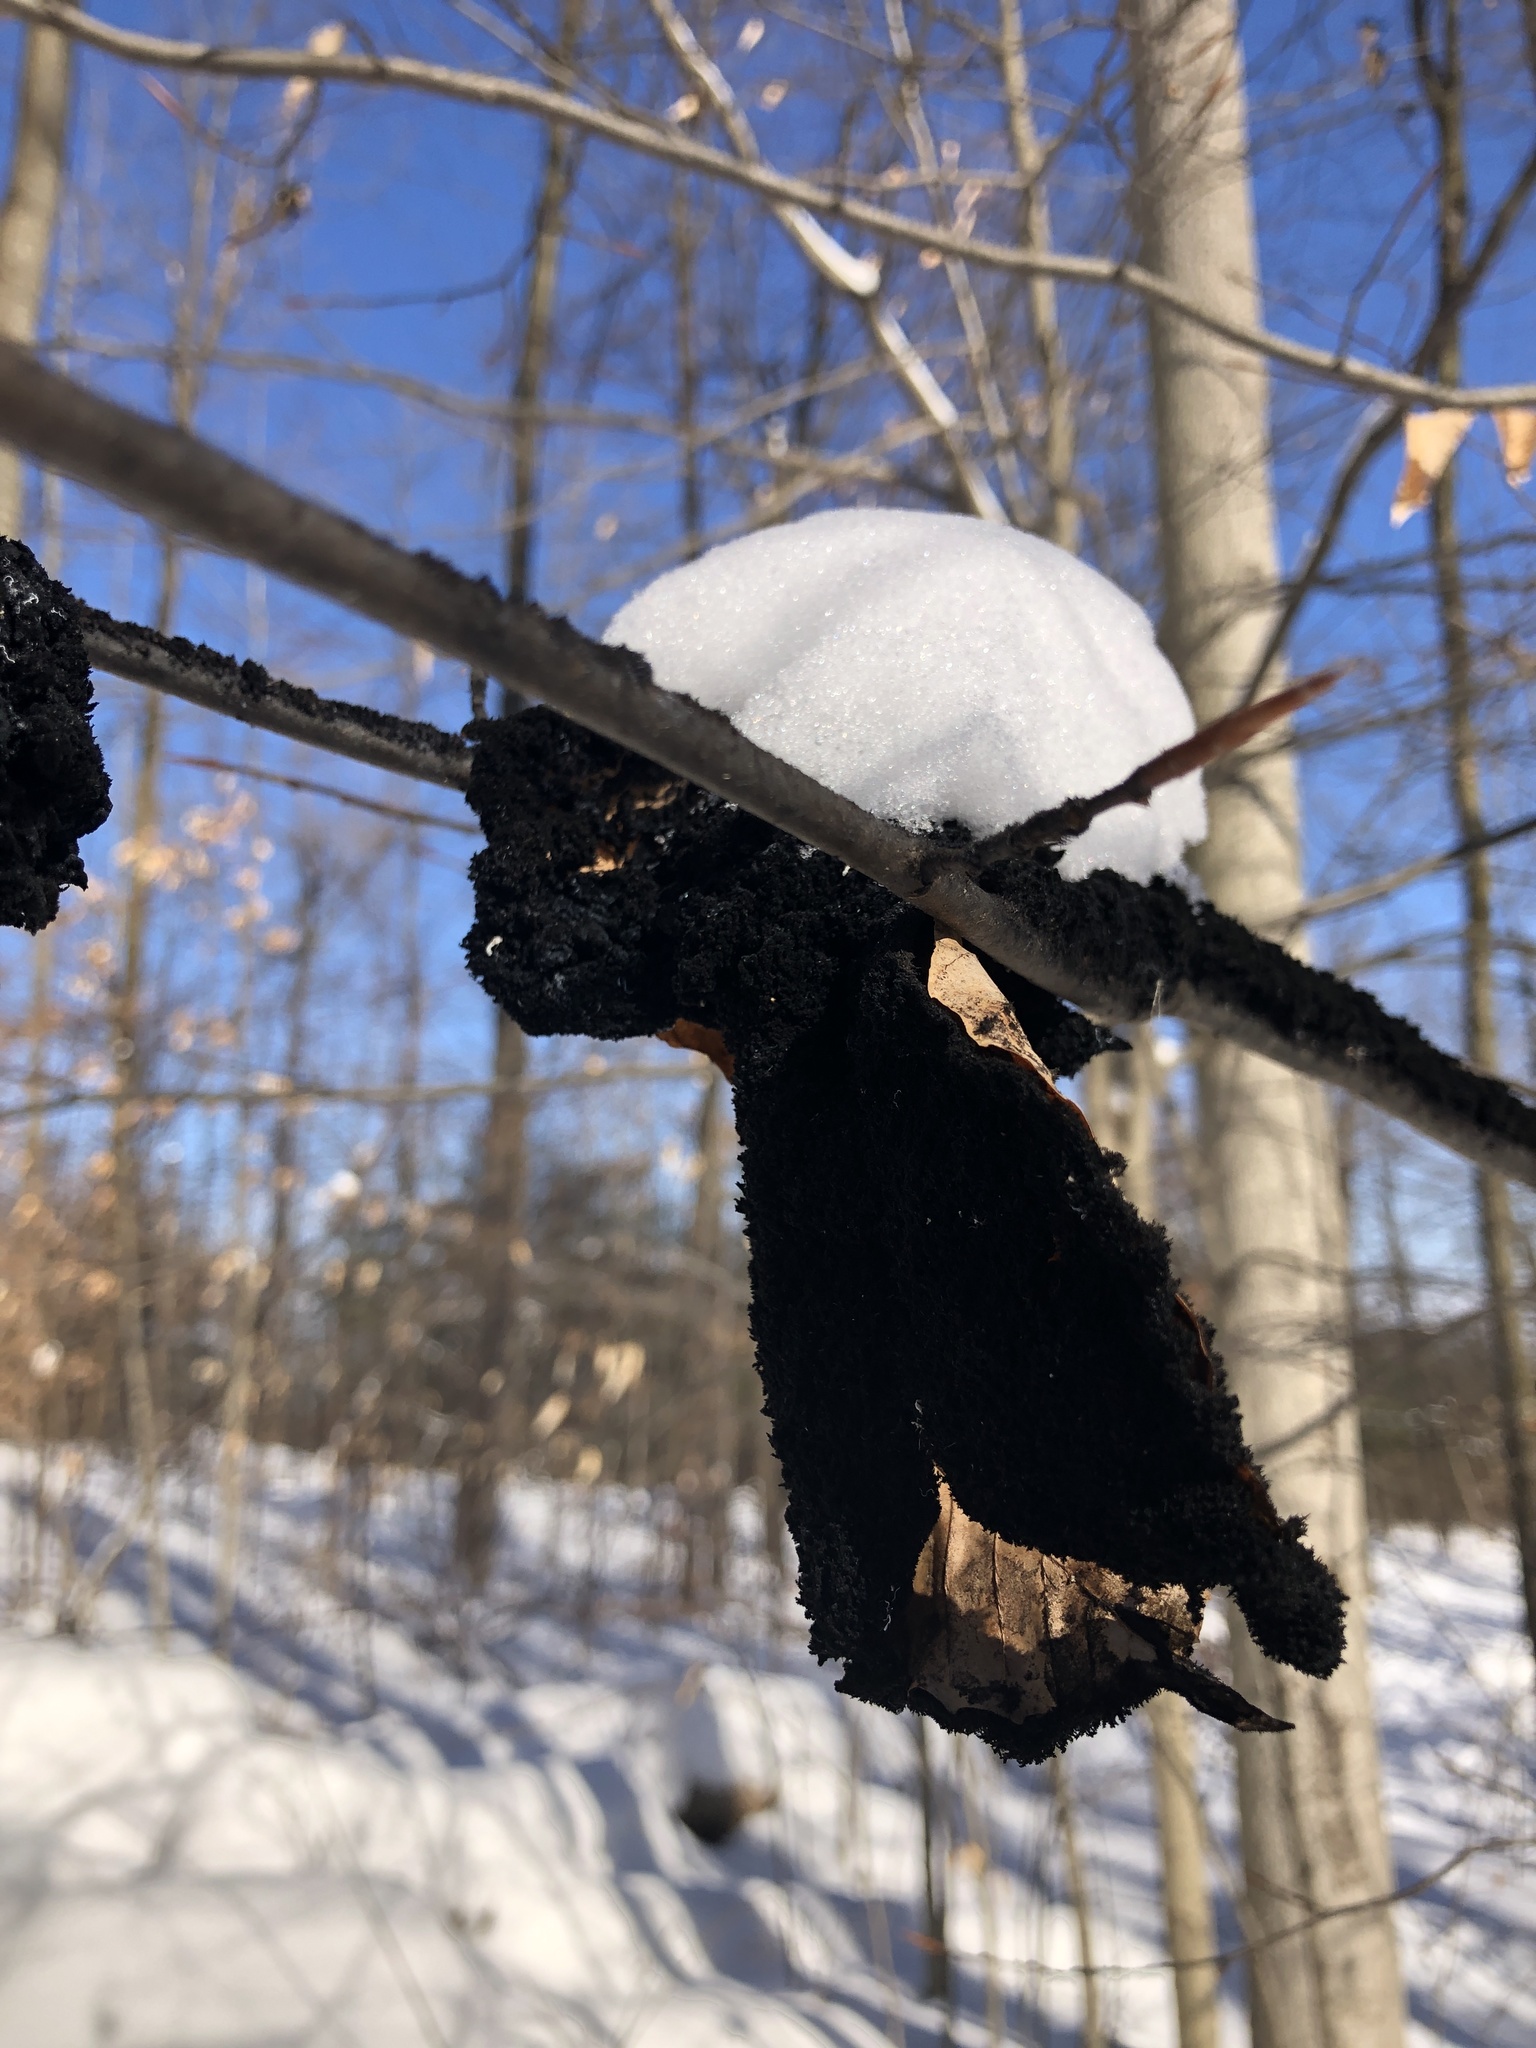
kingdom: Fungi
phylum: Ascomycota
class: Dothideomycetes
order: Capnodiales
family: Capnodiaceae
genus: Scorias
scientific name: Scorias spongiosa
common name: Black sooty mold
